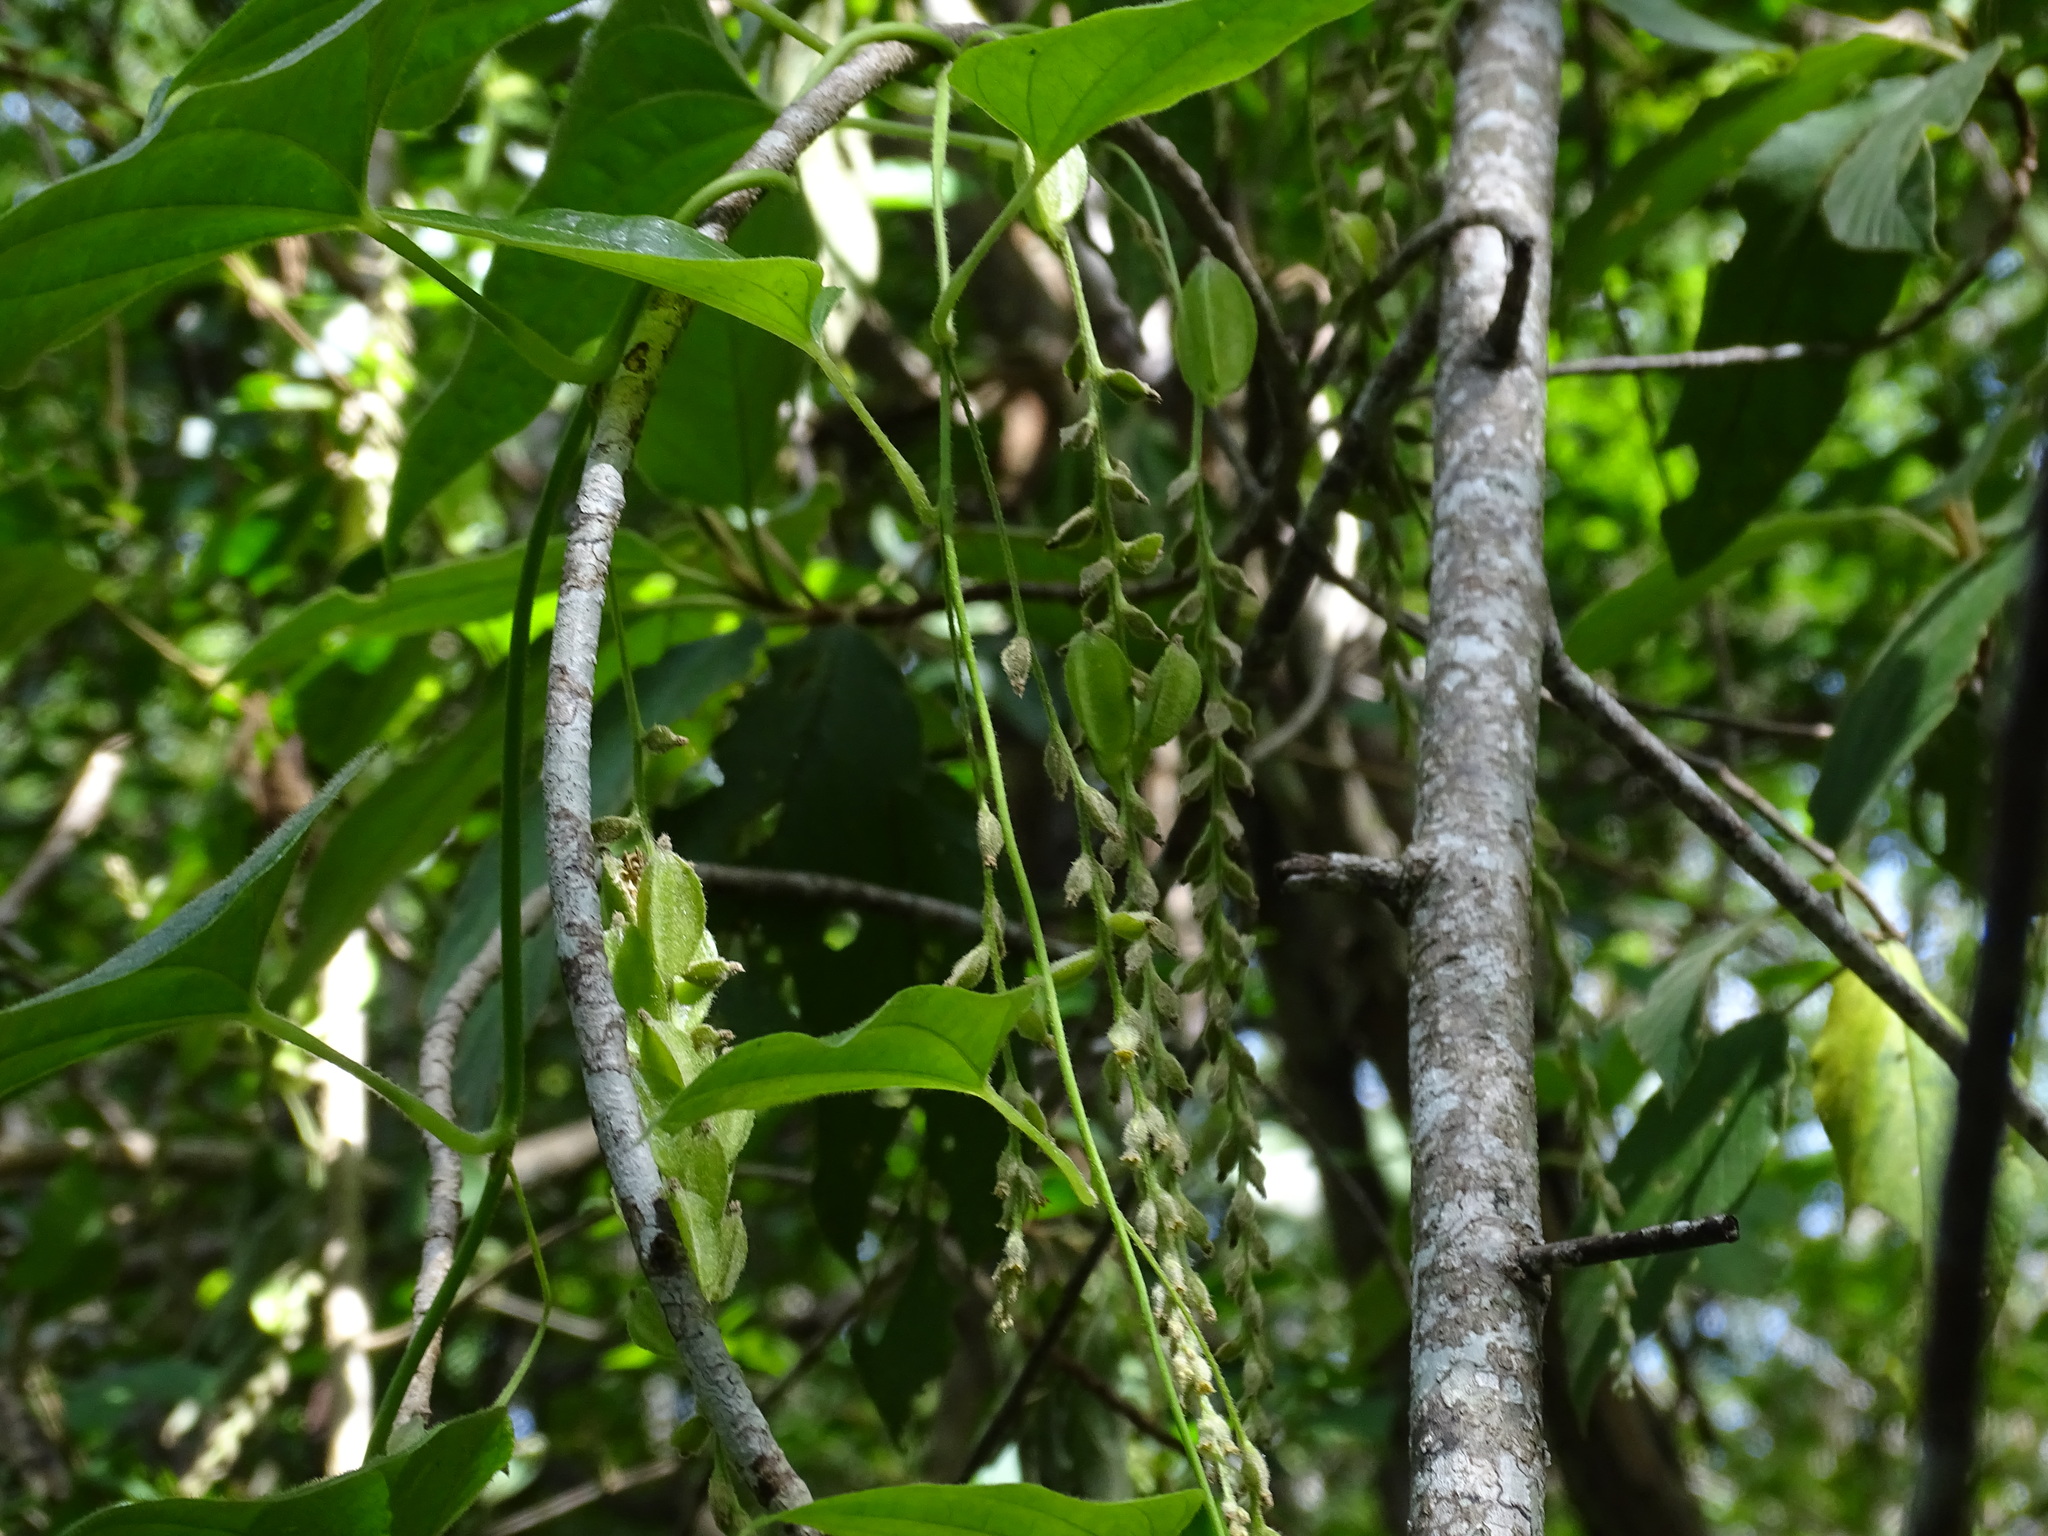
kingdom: Plantae
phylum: Tracheophyta
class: Liliopsida
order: Dioscoreales
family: Dioscoreaceae
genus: Dioscorea
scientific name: Dioscorea densiflora
